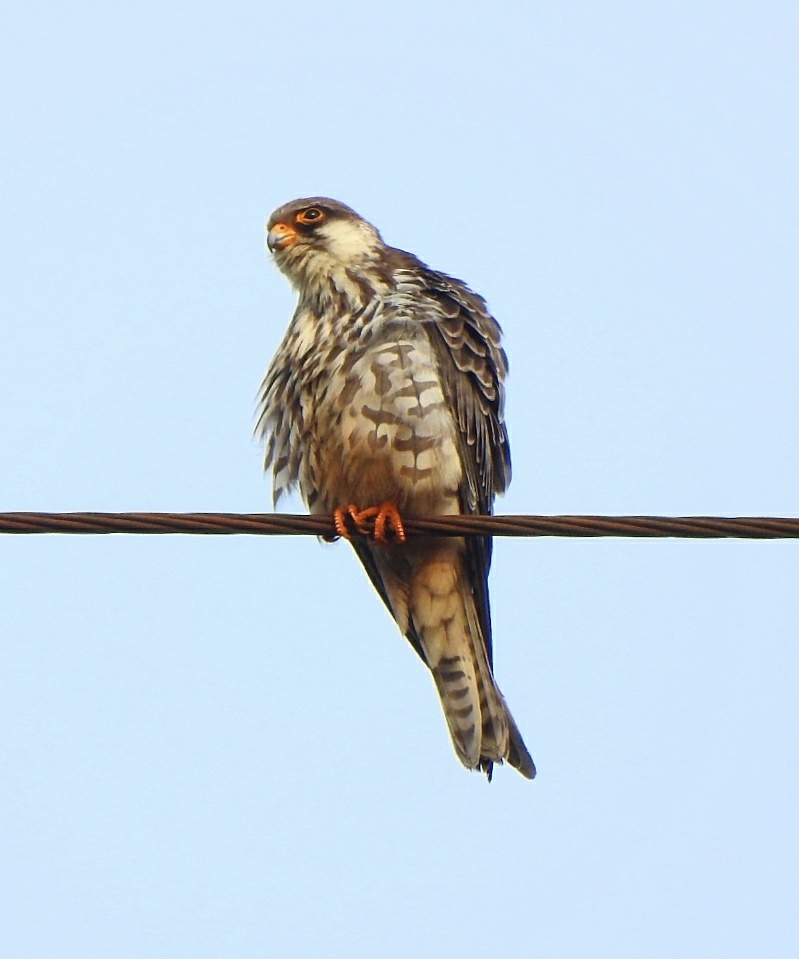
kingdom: Animalia
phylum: Chordata
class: Aves
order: Falconiformes
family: Falconidae
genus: Falco
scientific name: Falco amurensis
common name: Amur falcon
